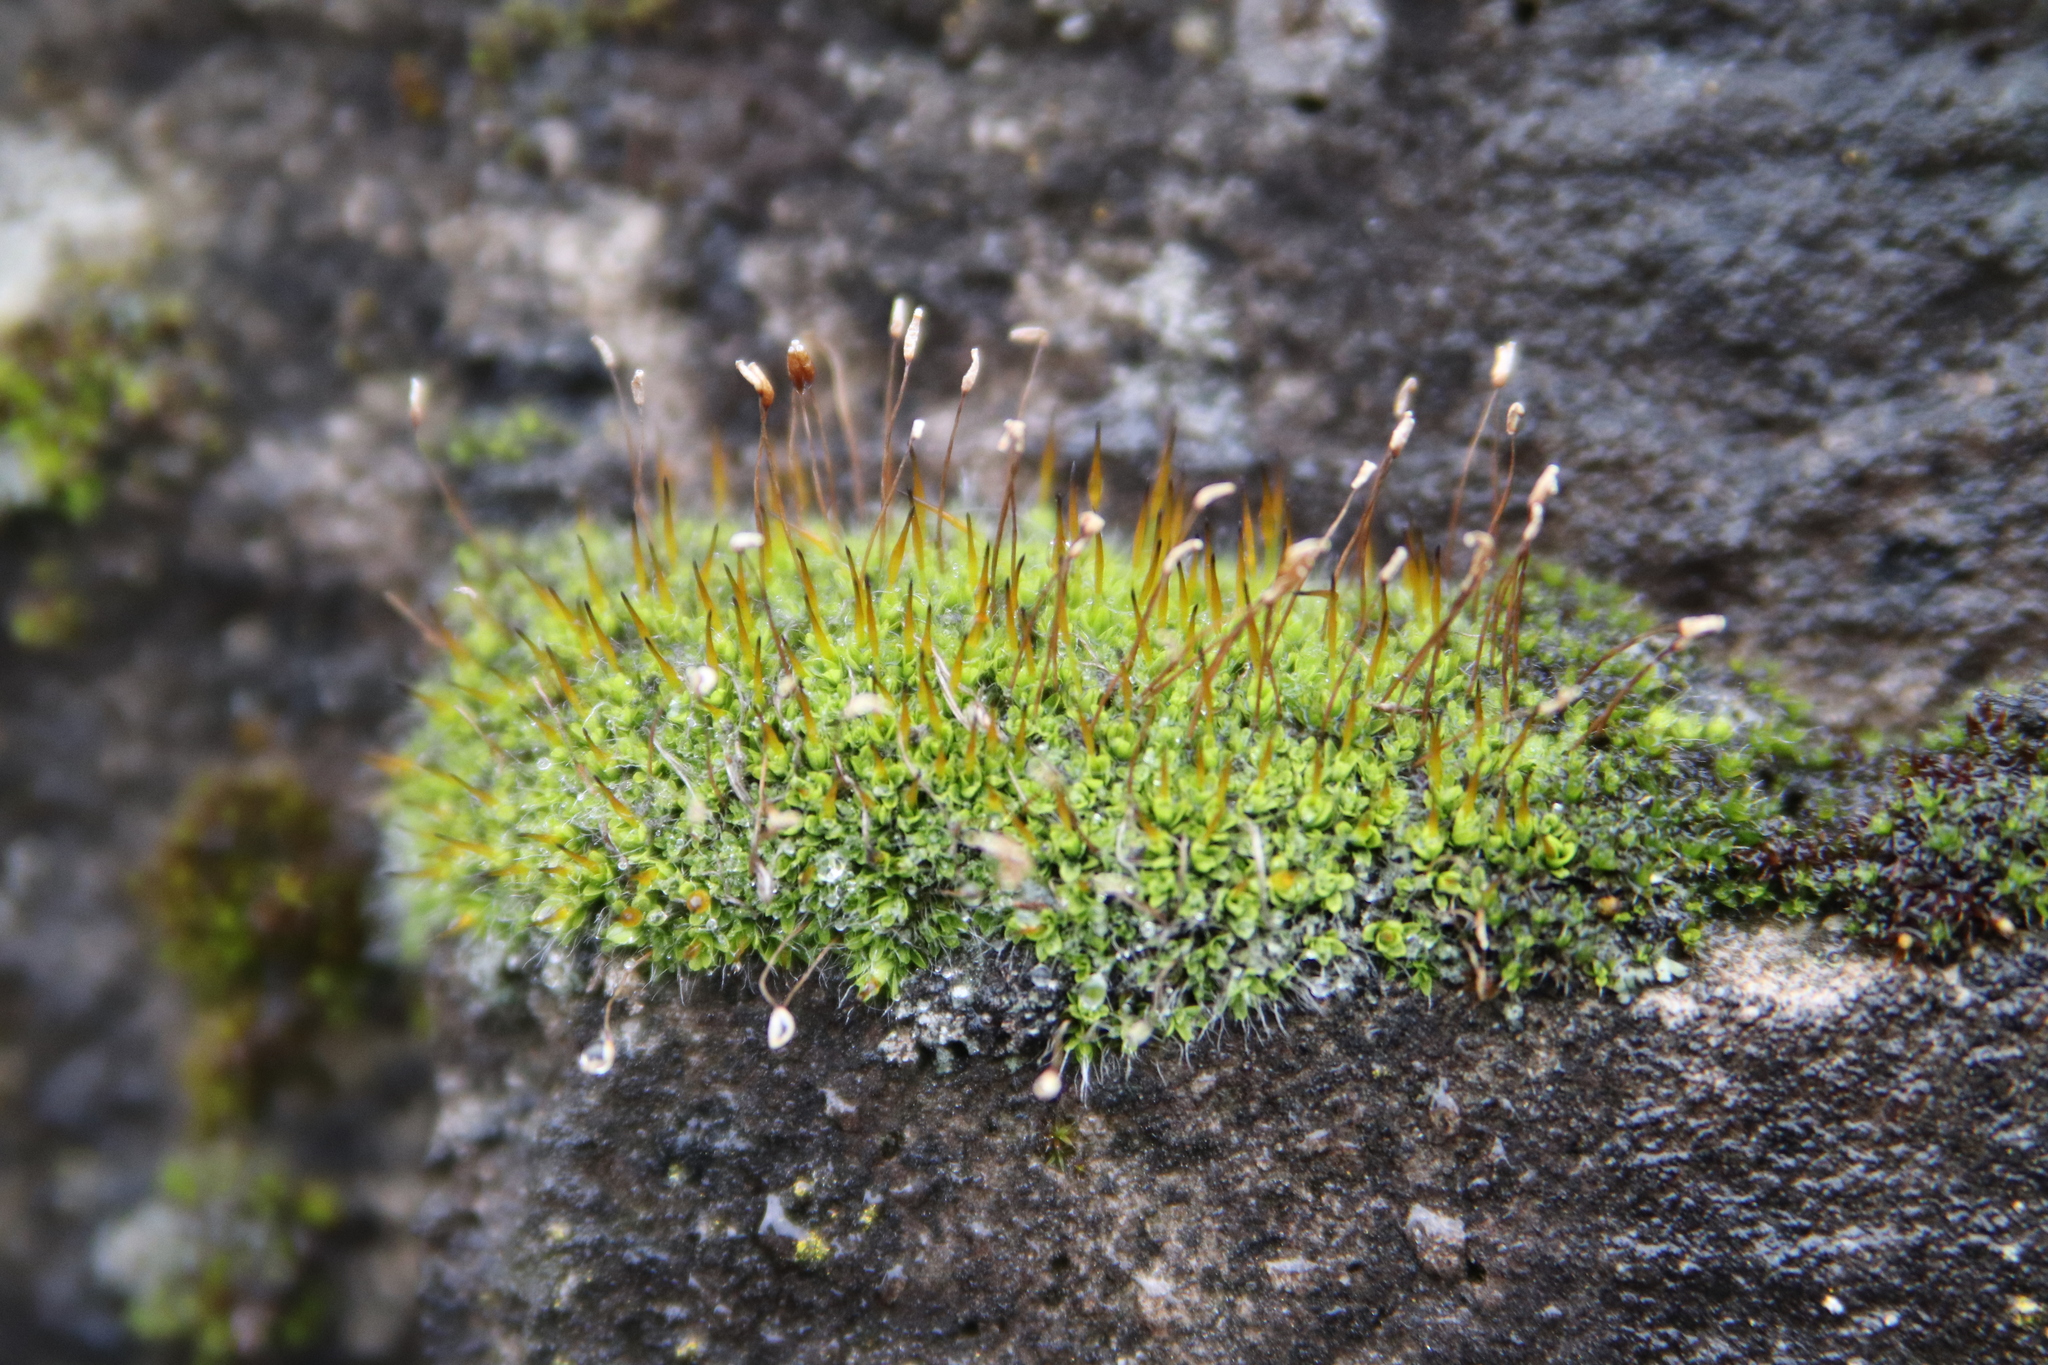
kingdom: Plantae
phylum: Bryophyta
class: Bryopsida
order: Pottiales
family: Pottiaceae
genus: Tortula
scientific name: Tortula muralis
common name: Wall screw-moss
